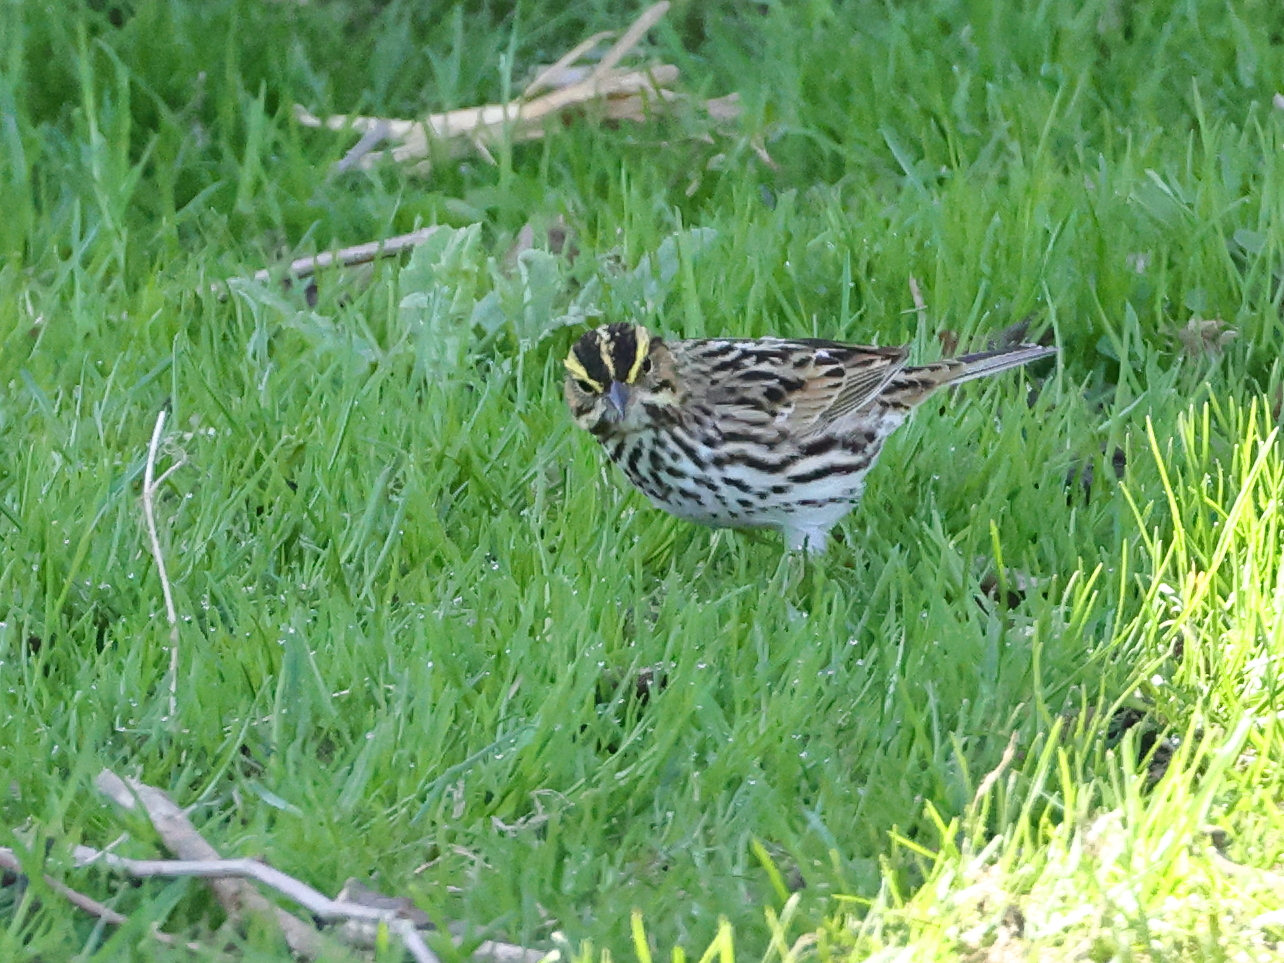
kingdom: Animalia
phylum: Chordata
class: Aves
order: Passeriformes
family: Passerellidae
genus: Passerculus
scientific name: Passerculus sandwichensis
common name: Savannah sparrow
